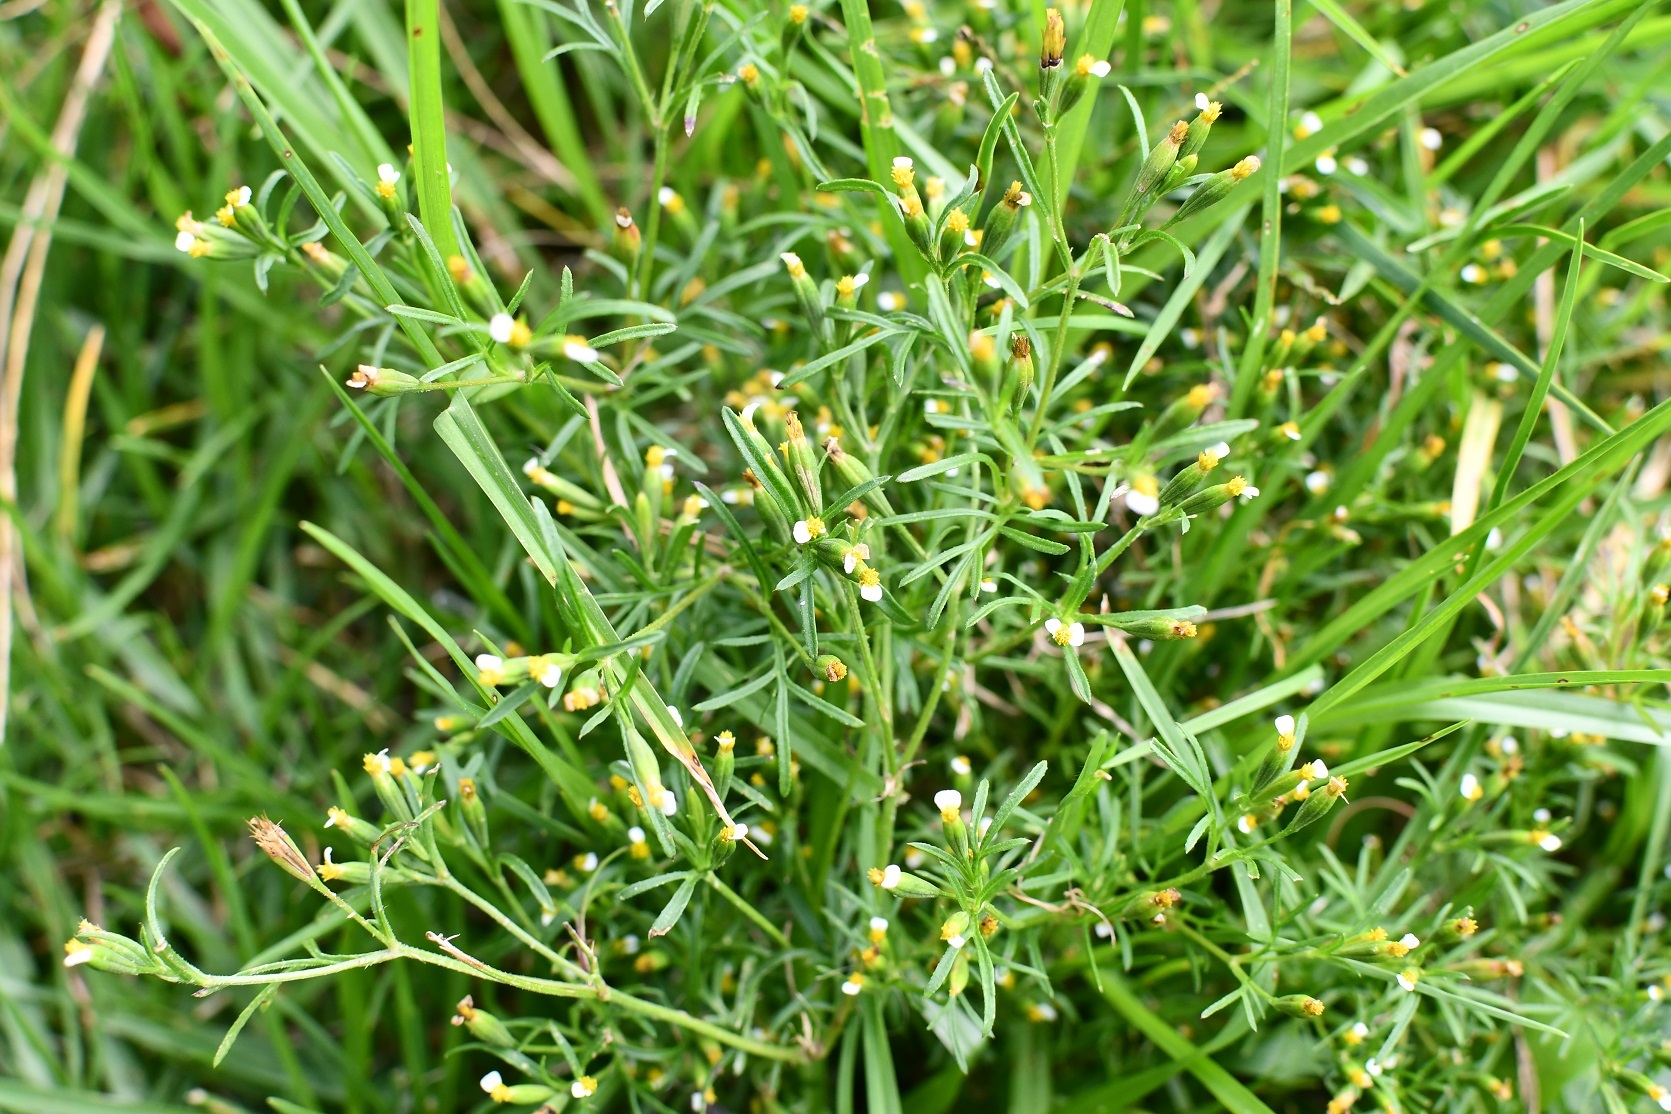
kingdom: Plantae
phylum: Tracheophyta
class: Magnoliopsida
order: Asterales
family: Asteraceae
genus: Tagetes
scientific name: Tagetes filifolia
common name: Lesser marigold
